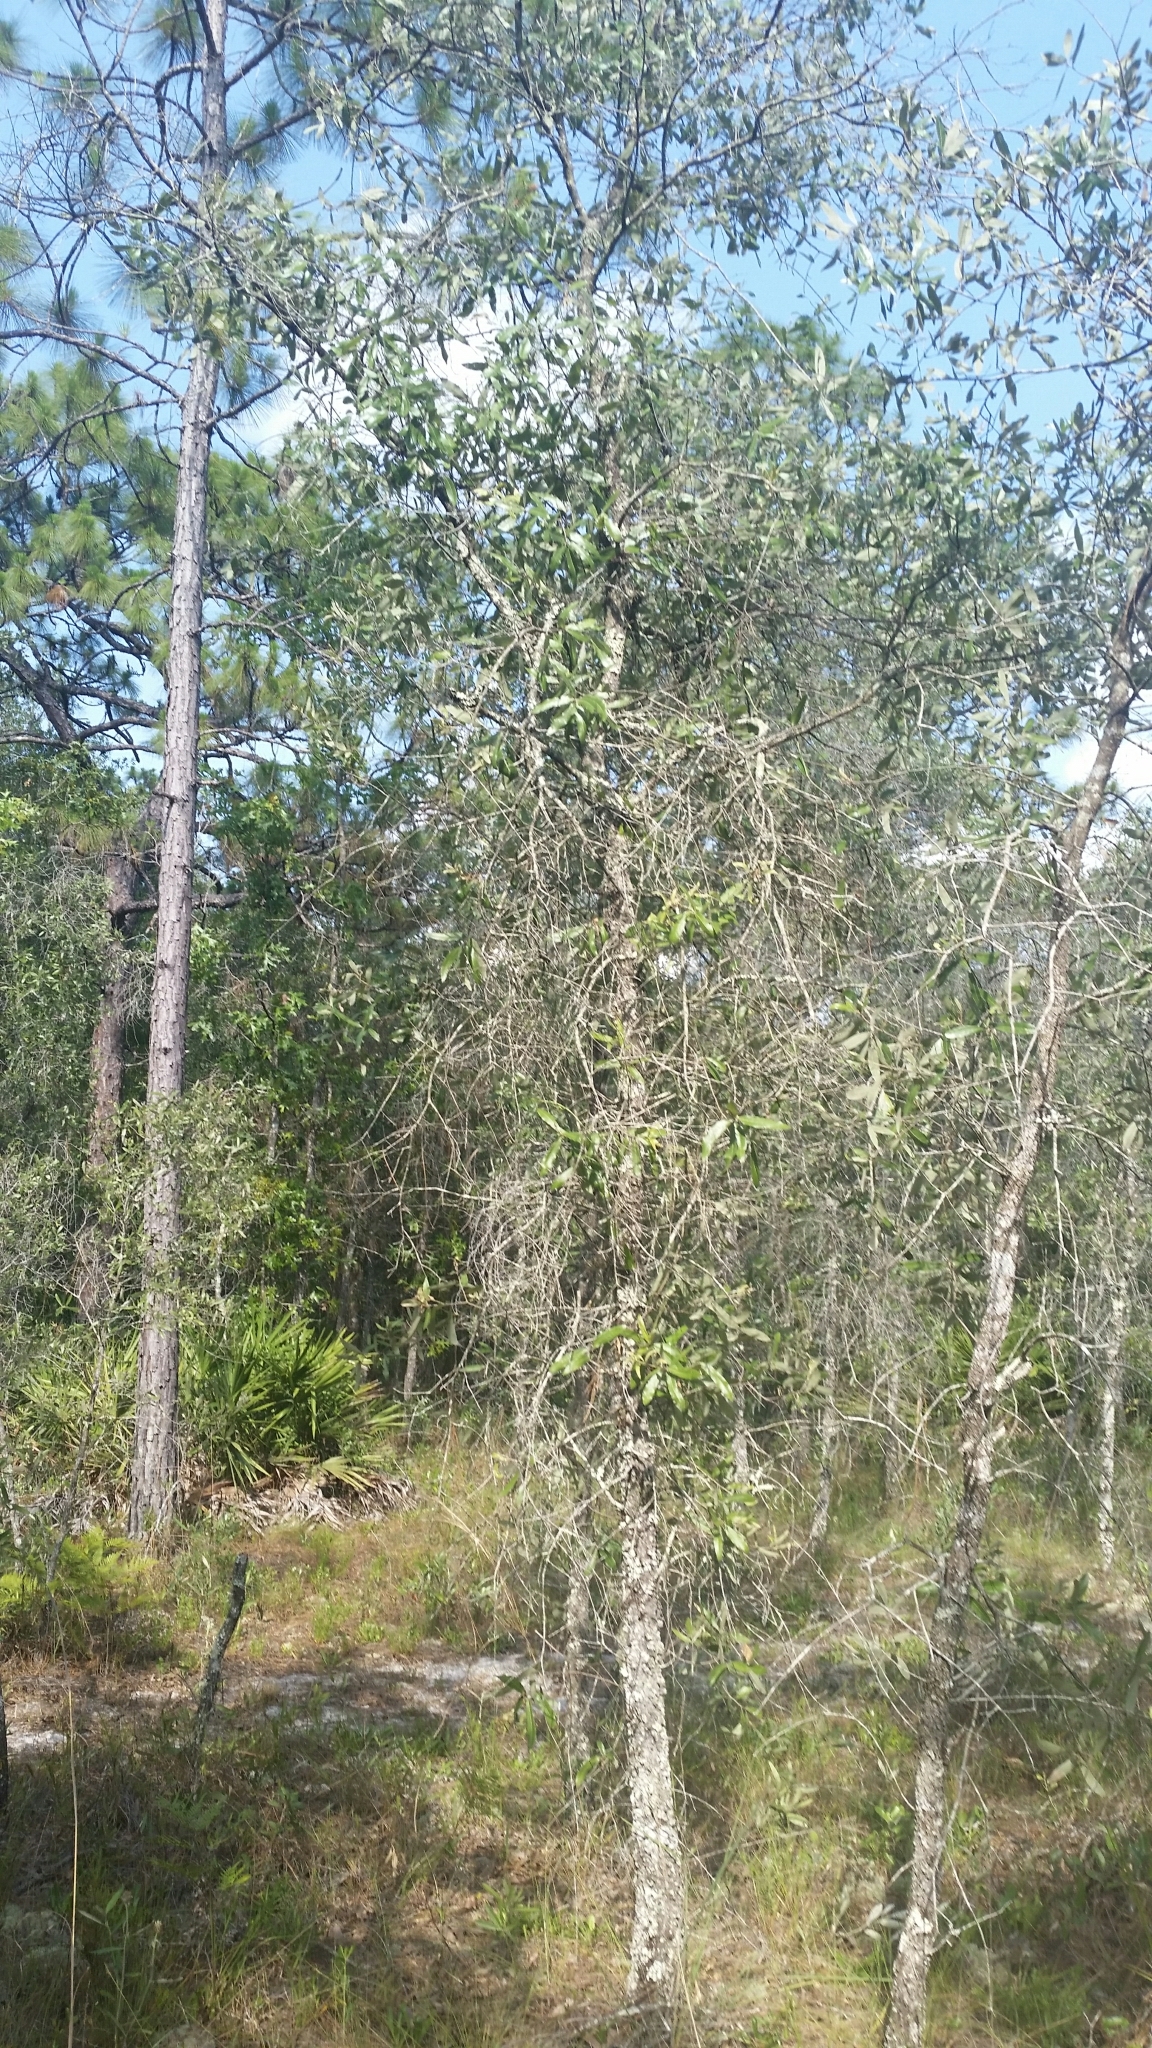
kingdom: Plantae
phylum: Tracheophyta
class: Magnoliopsida
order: Fagales
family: Fagaceae
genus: Quercus
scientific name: Quercus incana
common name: Bluejack oak
